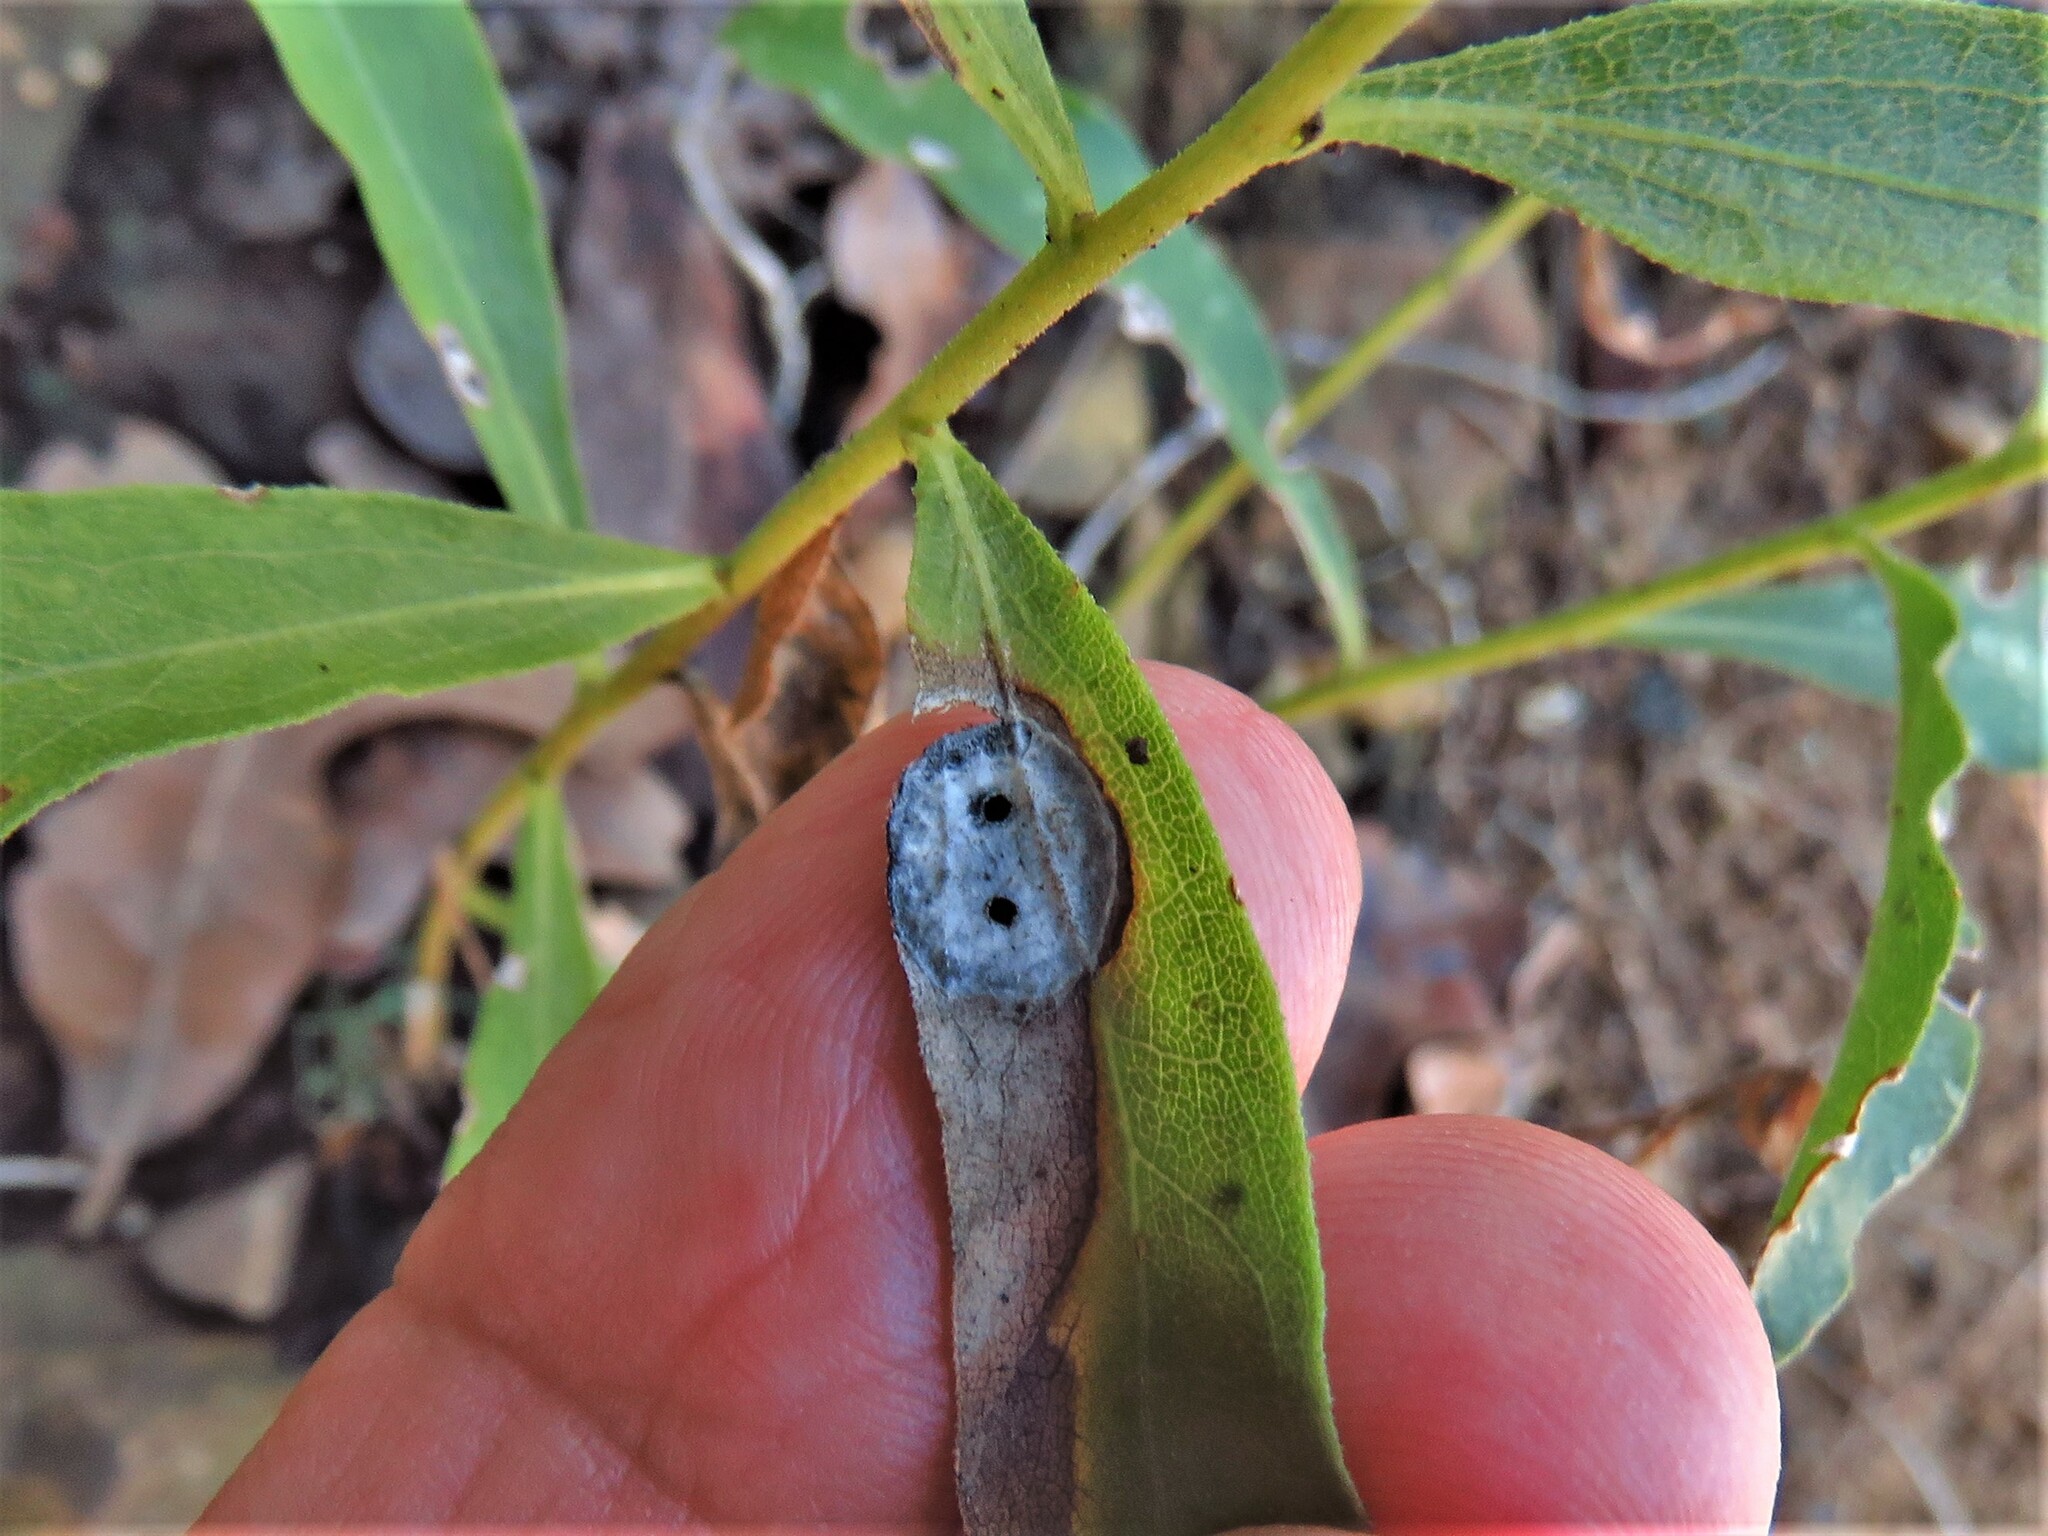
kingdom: Animalia
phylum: Arthropoda
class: Insecta
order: Diptera
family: Cecidomyiidae
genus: Asteromyia
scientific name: Asteromyia carbonifera
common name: Carbonifera goldenrod gall midge
